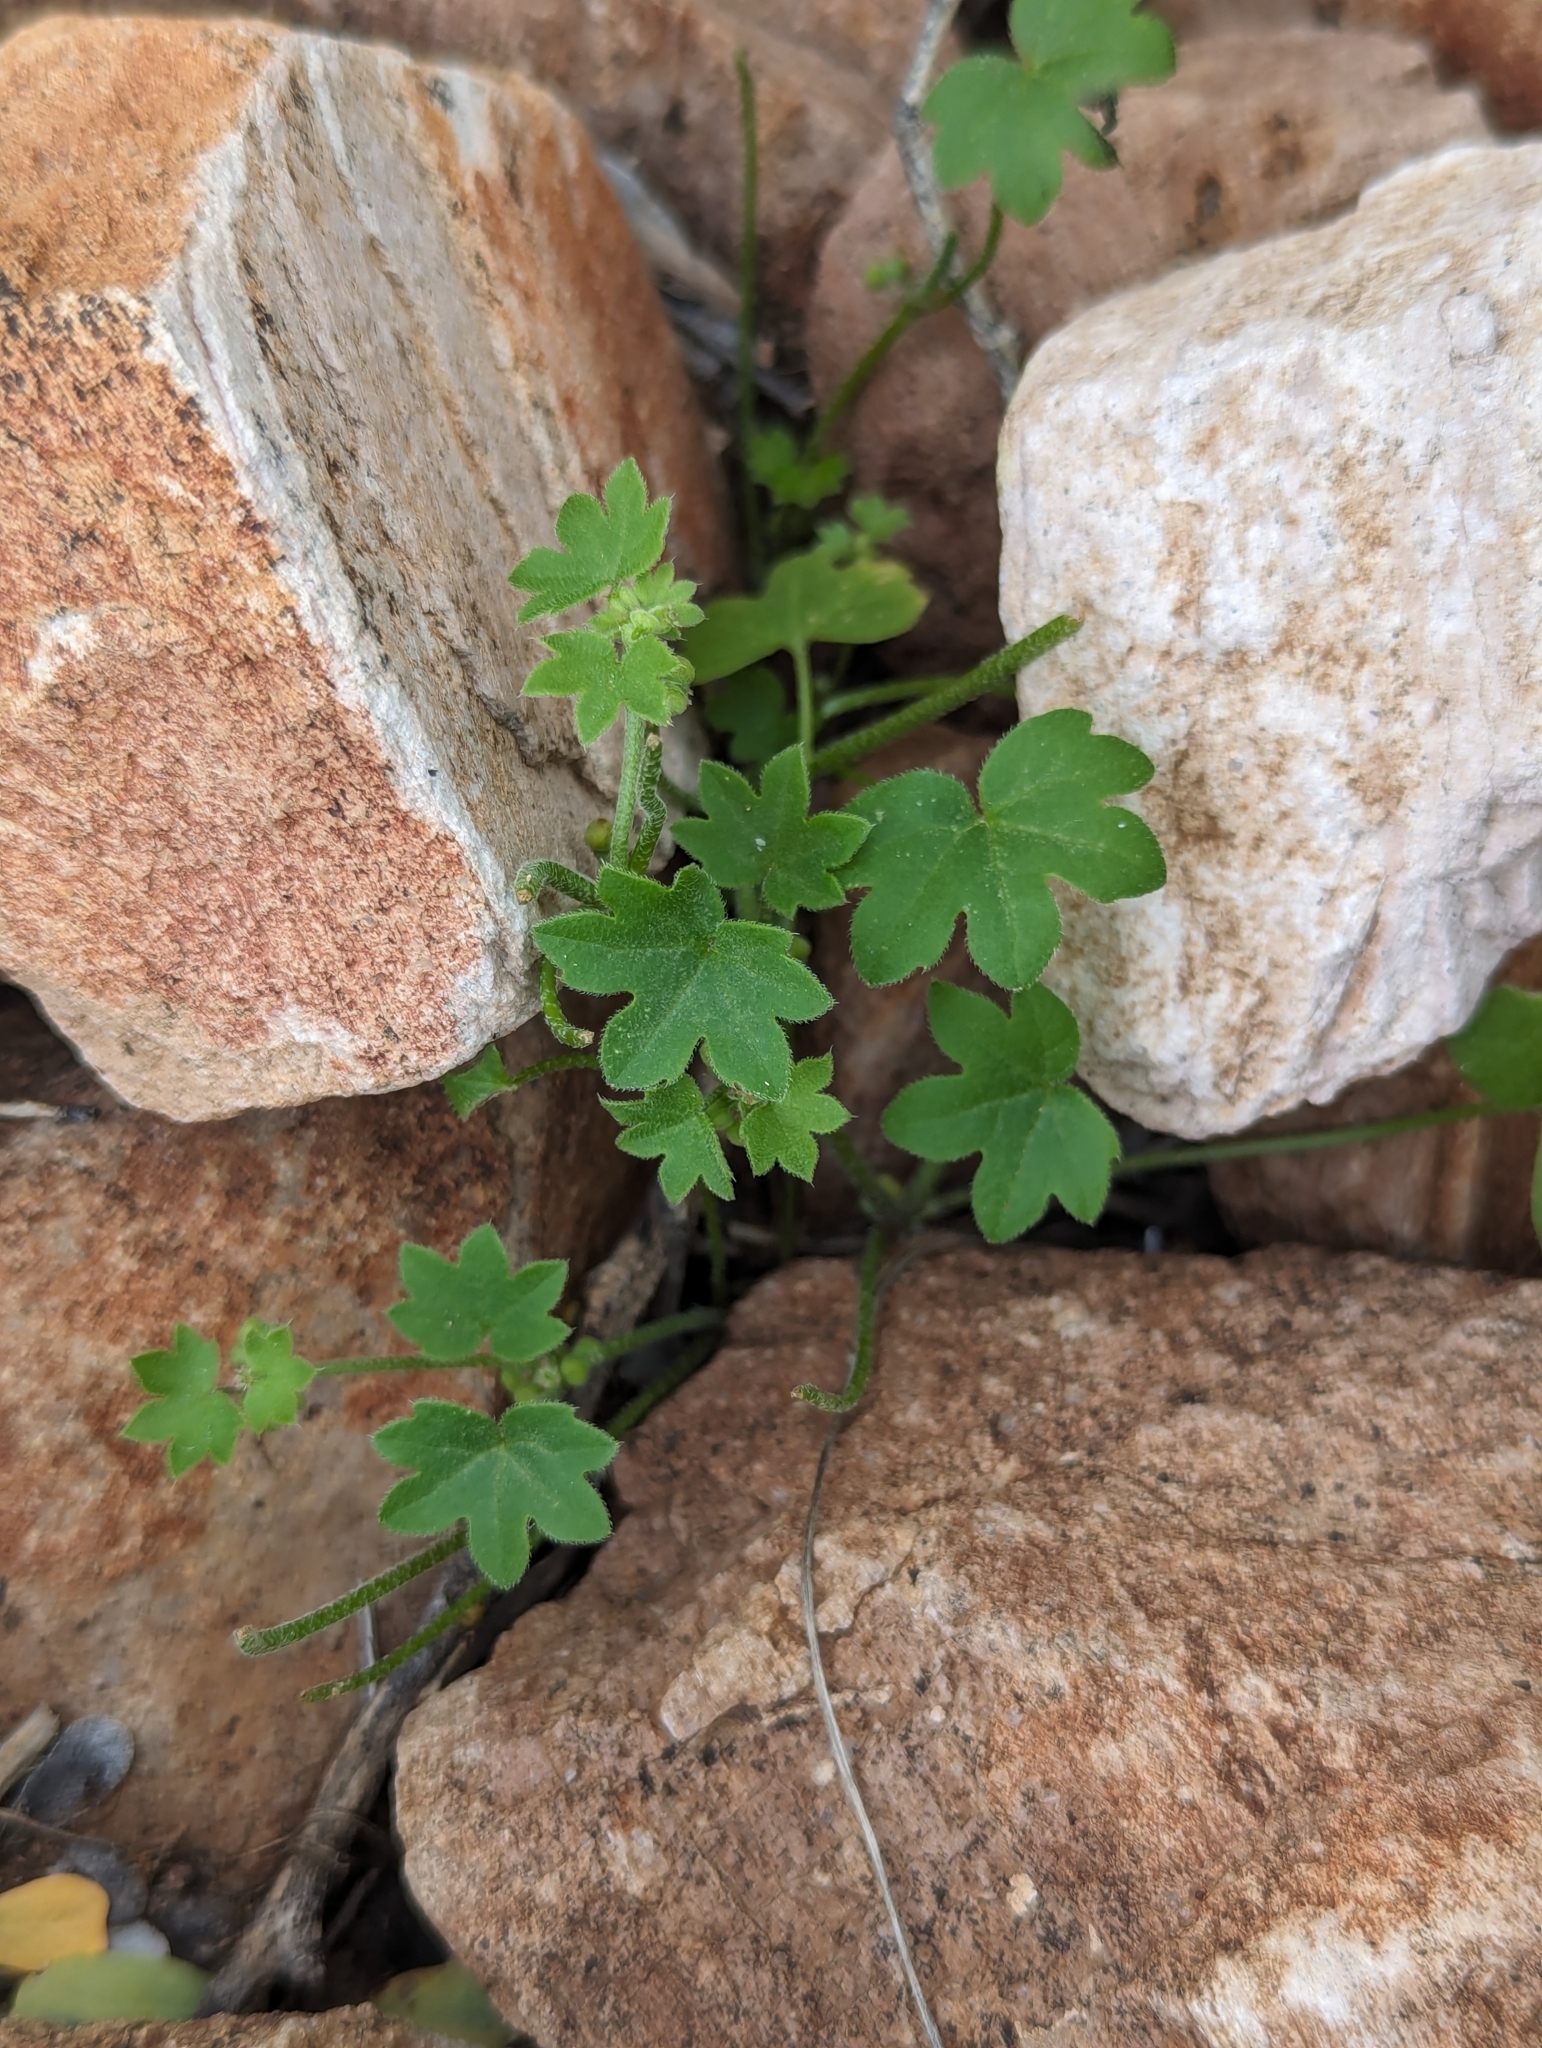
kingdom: Plantae
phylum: Tracheophyta
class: Magnoliopsida
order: Apiales
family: Apiaceae
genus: Bowlesia
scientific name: Bowlesia incana
